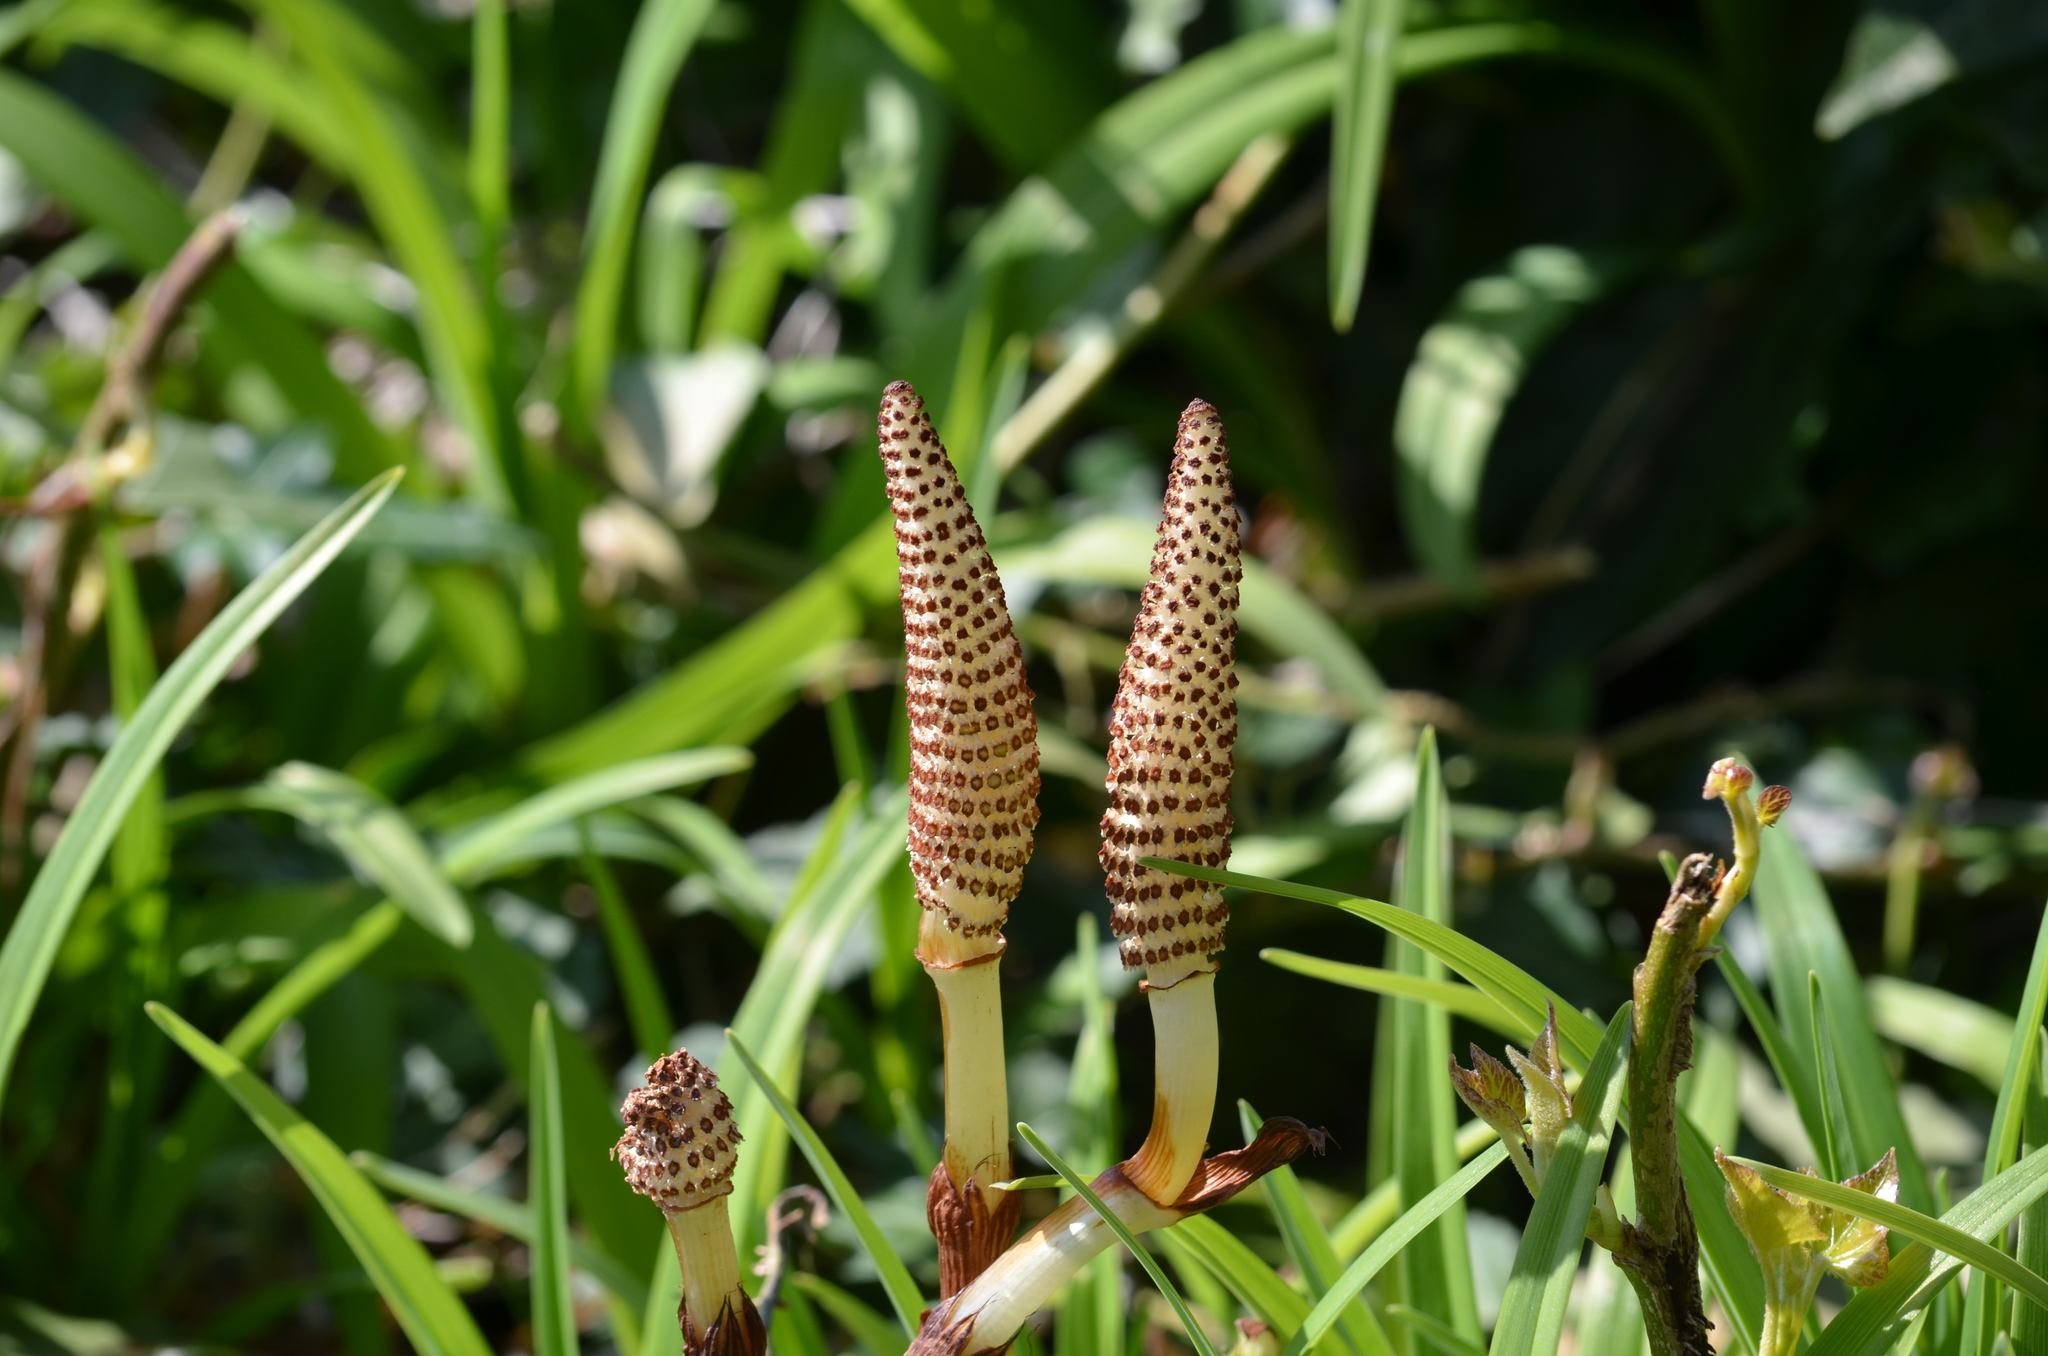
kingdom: Plantae
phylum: Tracheophyta
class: Polypodiopsida
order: Equisetales
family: Equisetaceae
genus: Equisetum
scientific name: Equisetum telmateia
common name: Great horsetail
